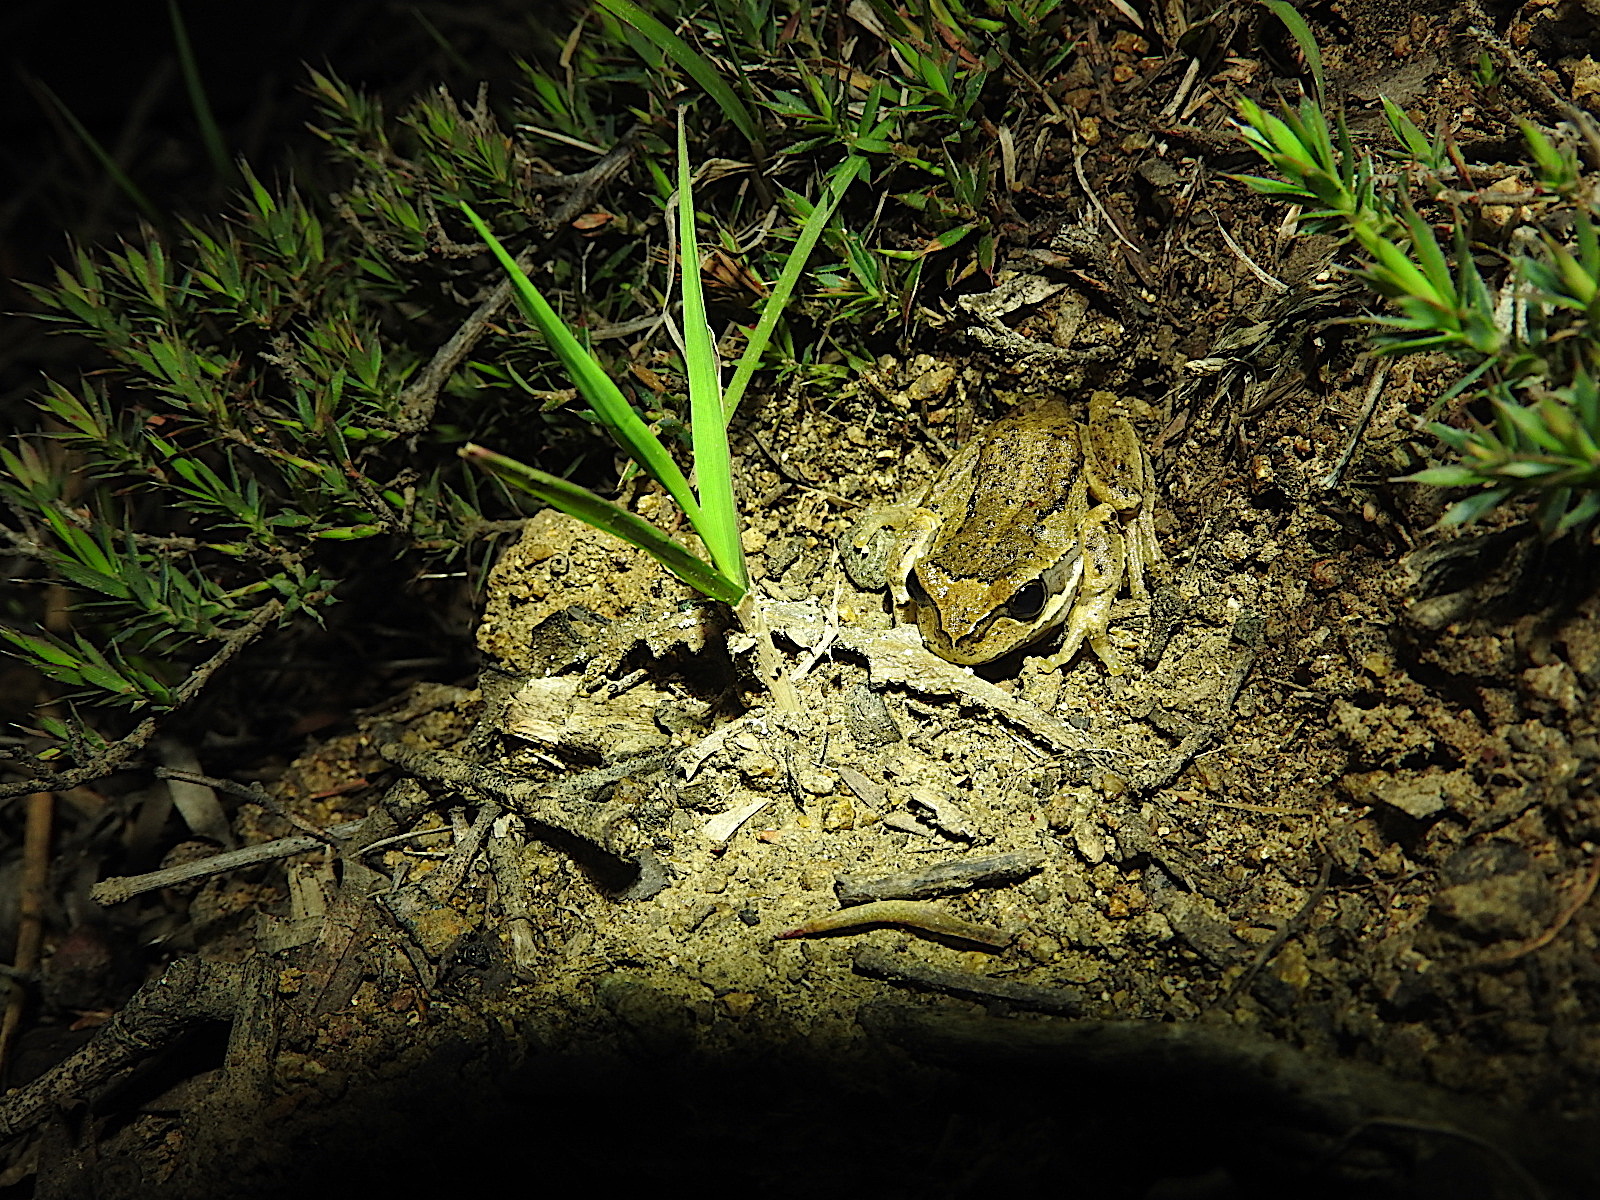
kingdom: Animalia
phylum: Chordata
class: Amphibia
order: Anura
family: Pelodryadidae
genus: Litoria
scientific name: Litoria ewingii
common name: Southern brown tree frog
